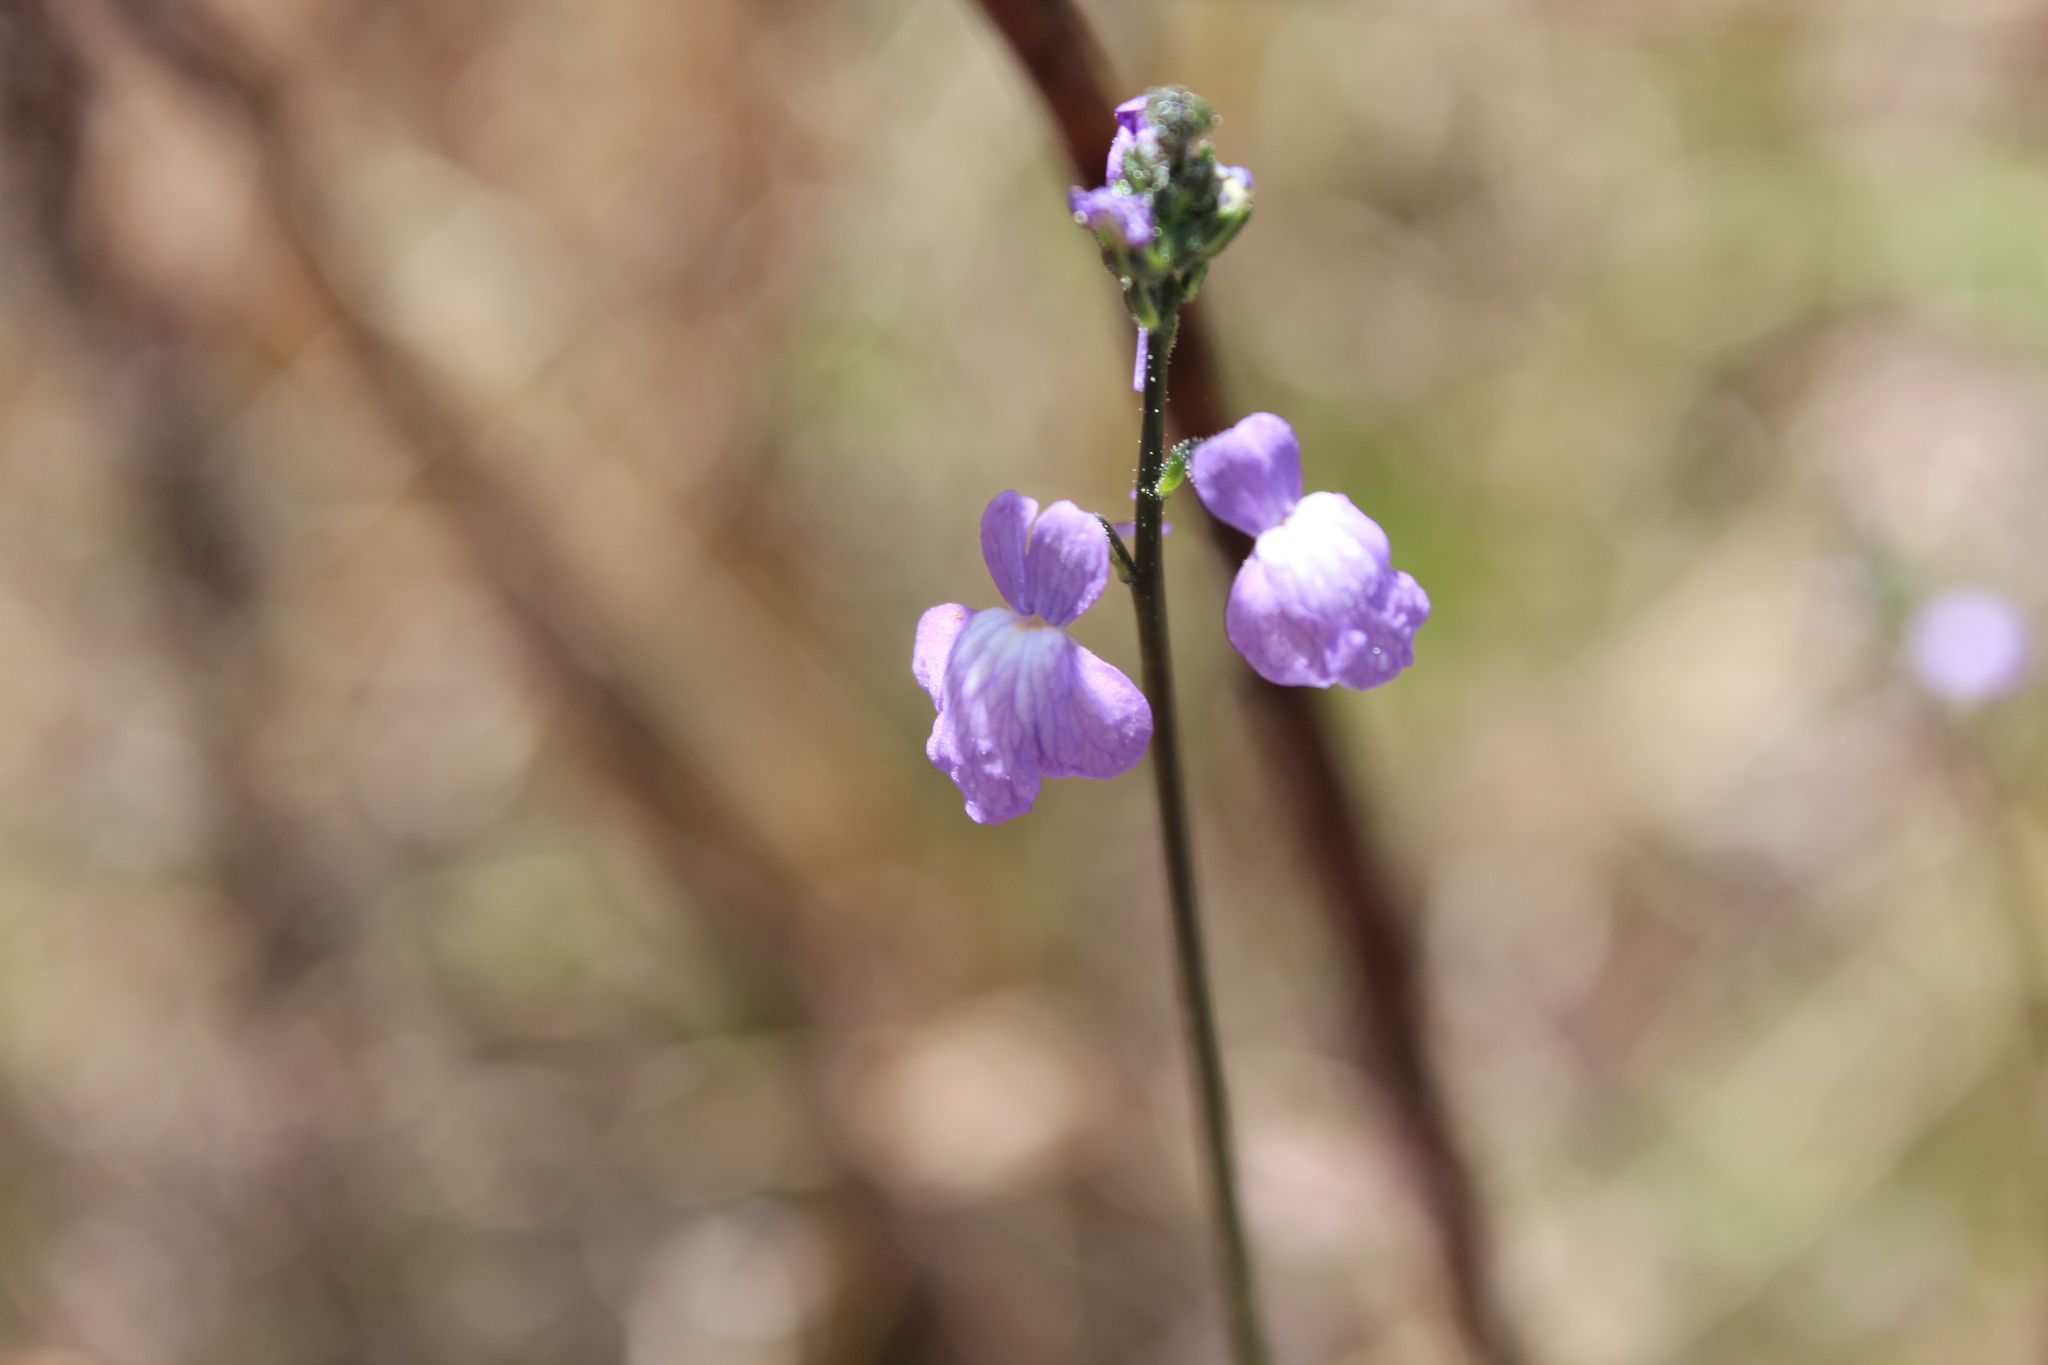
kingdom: Plantae
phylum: Tracheophyta
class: Magnoliopsida
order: Lamiales
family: Plantaginaceae
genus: Nuttallanthus
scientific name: Nuttallanthus canadensis
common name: Blue toadflax
